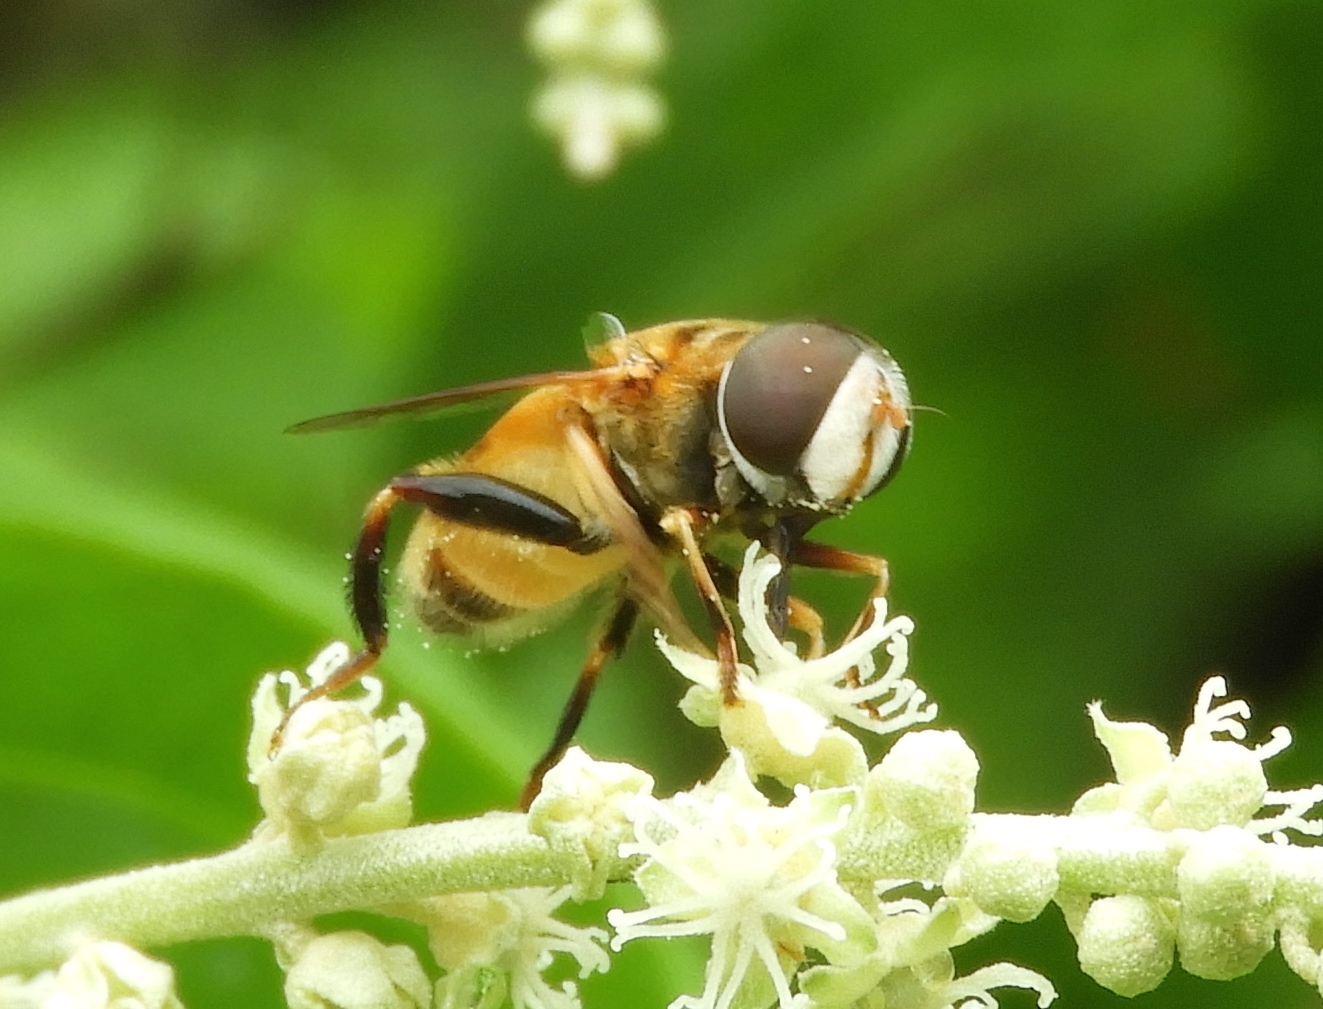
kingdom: Animalia
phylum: Arthropoda
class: Insecta
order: Diptera
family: Syrphidae
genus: Palpada
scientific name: Palpada vinetorum
